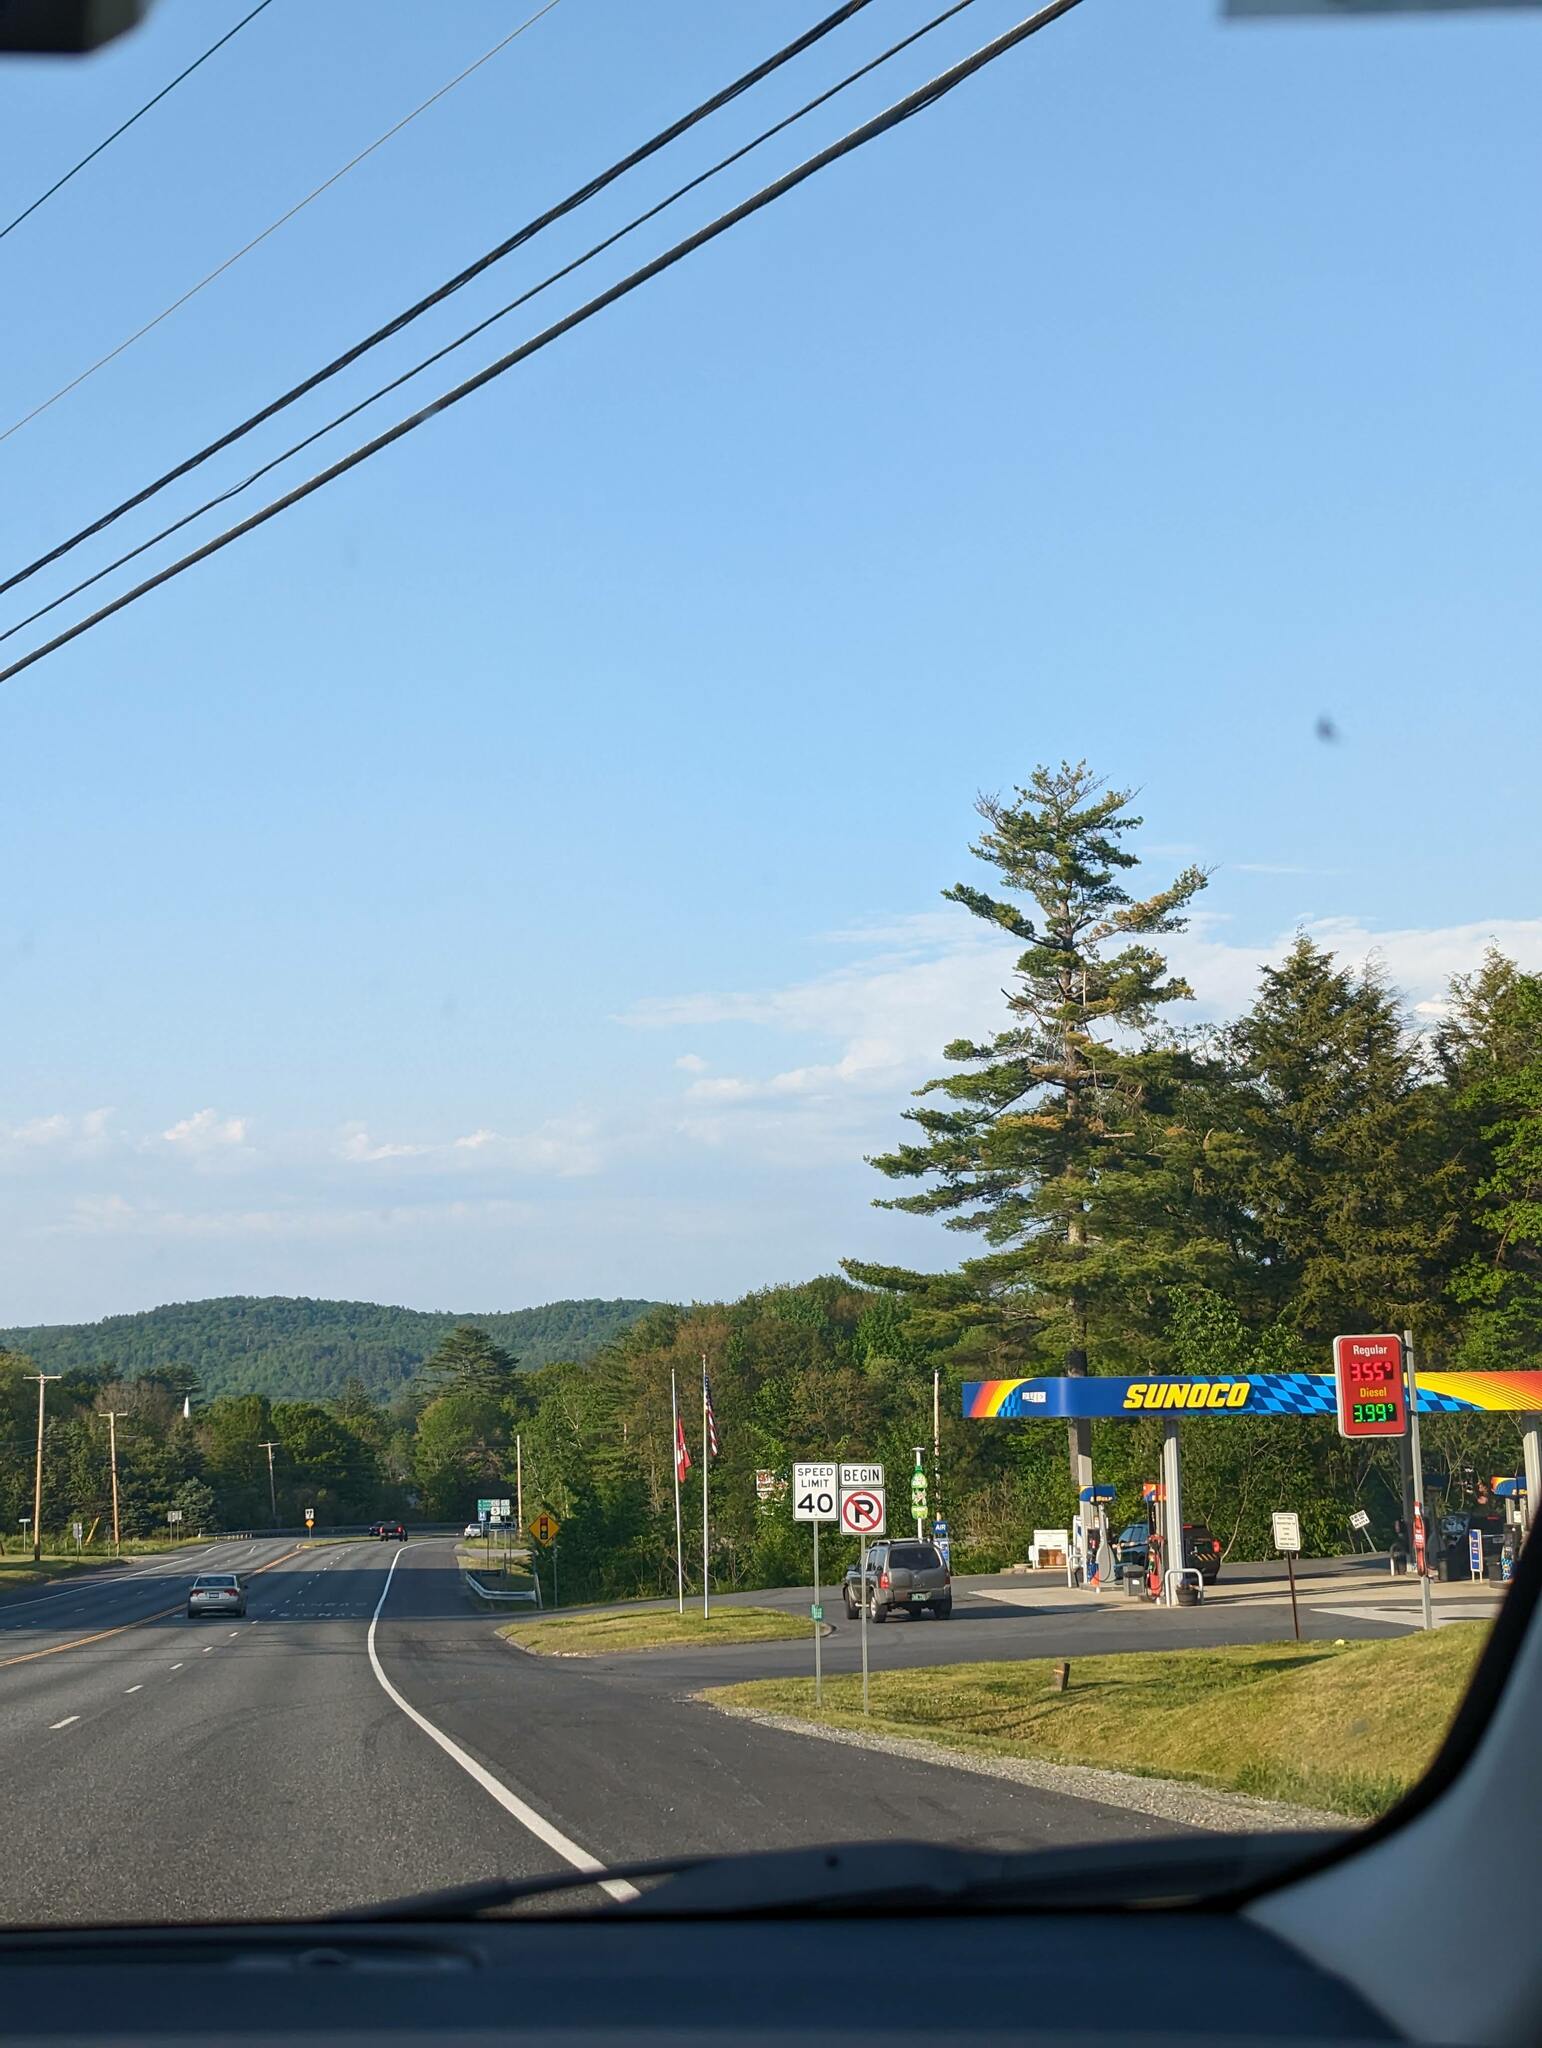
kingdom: Plantae
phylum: Tracheophyta
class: Pinopsida
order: Pinales
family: Pinaceae
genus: Pinus
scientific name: Pinus strobus
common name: Weymouth pine
